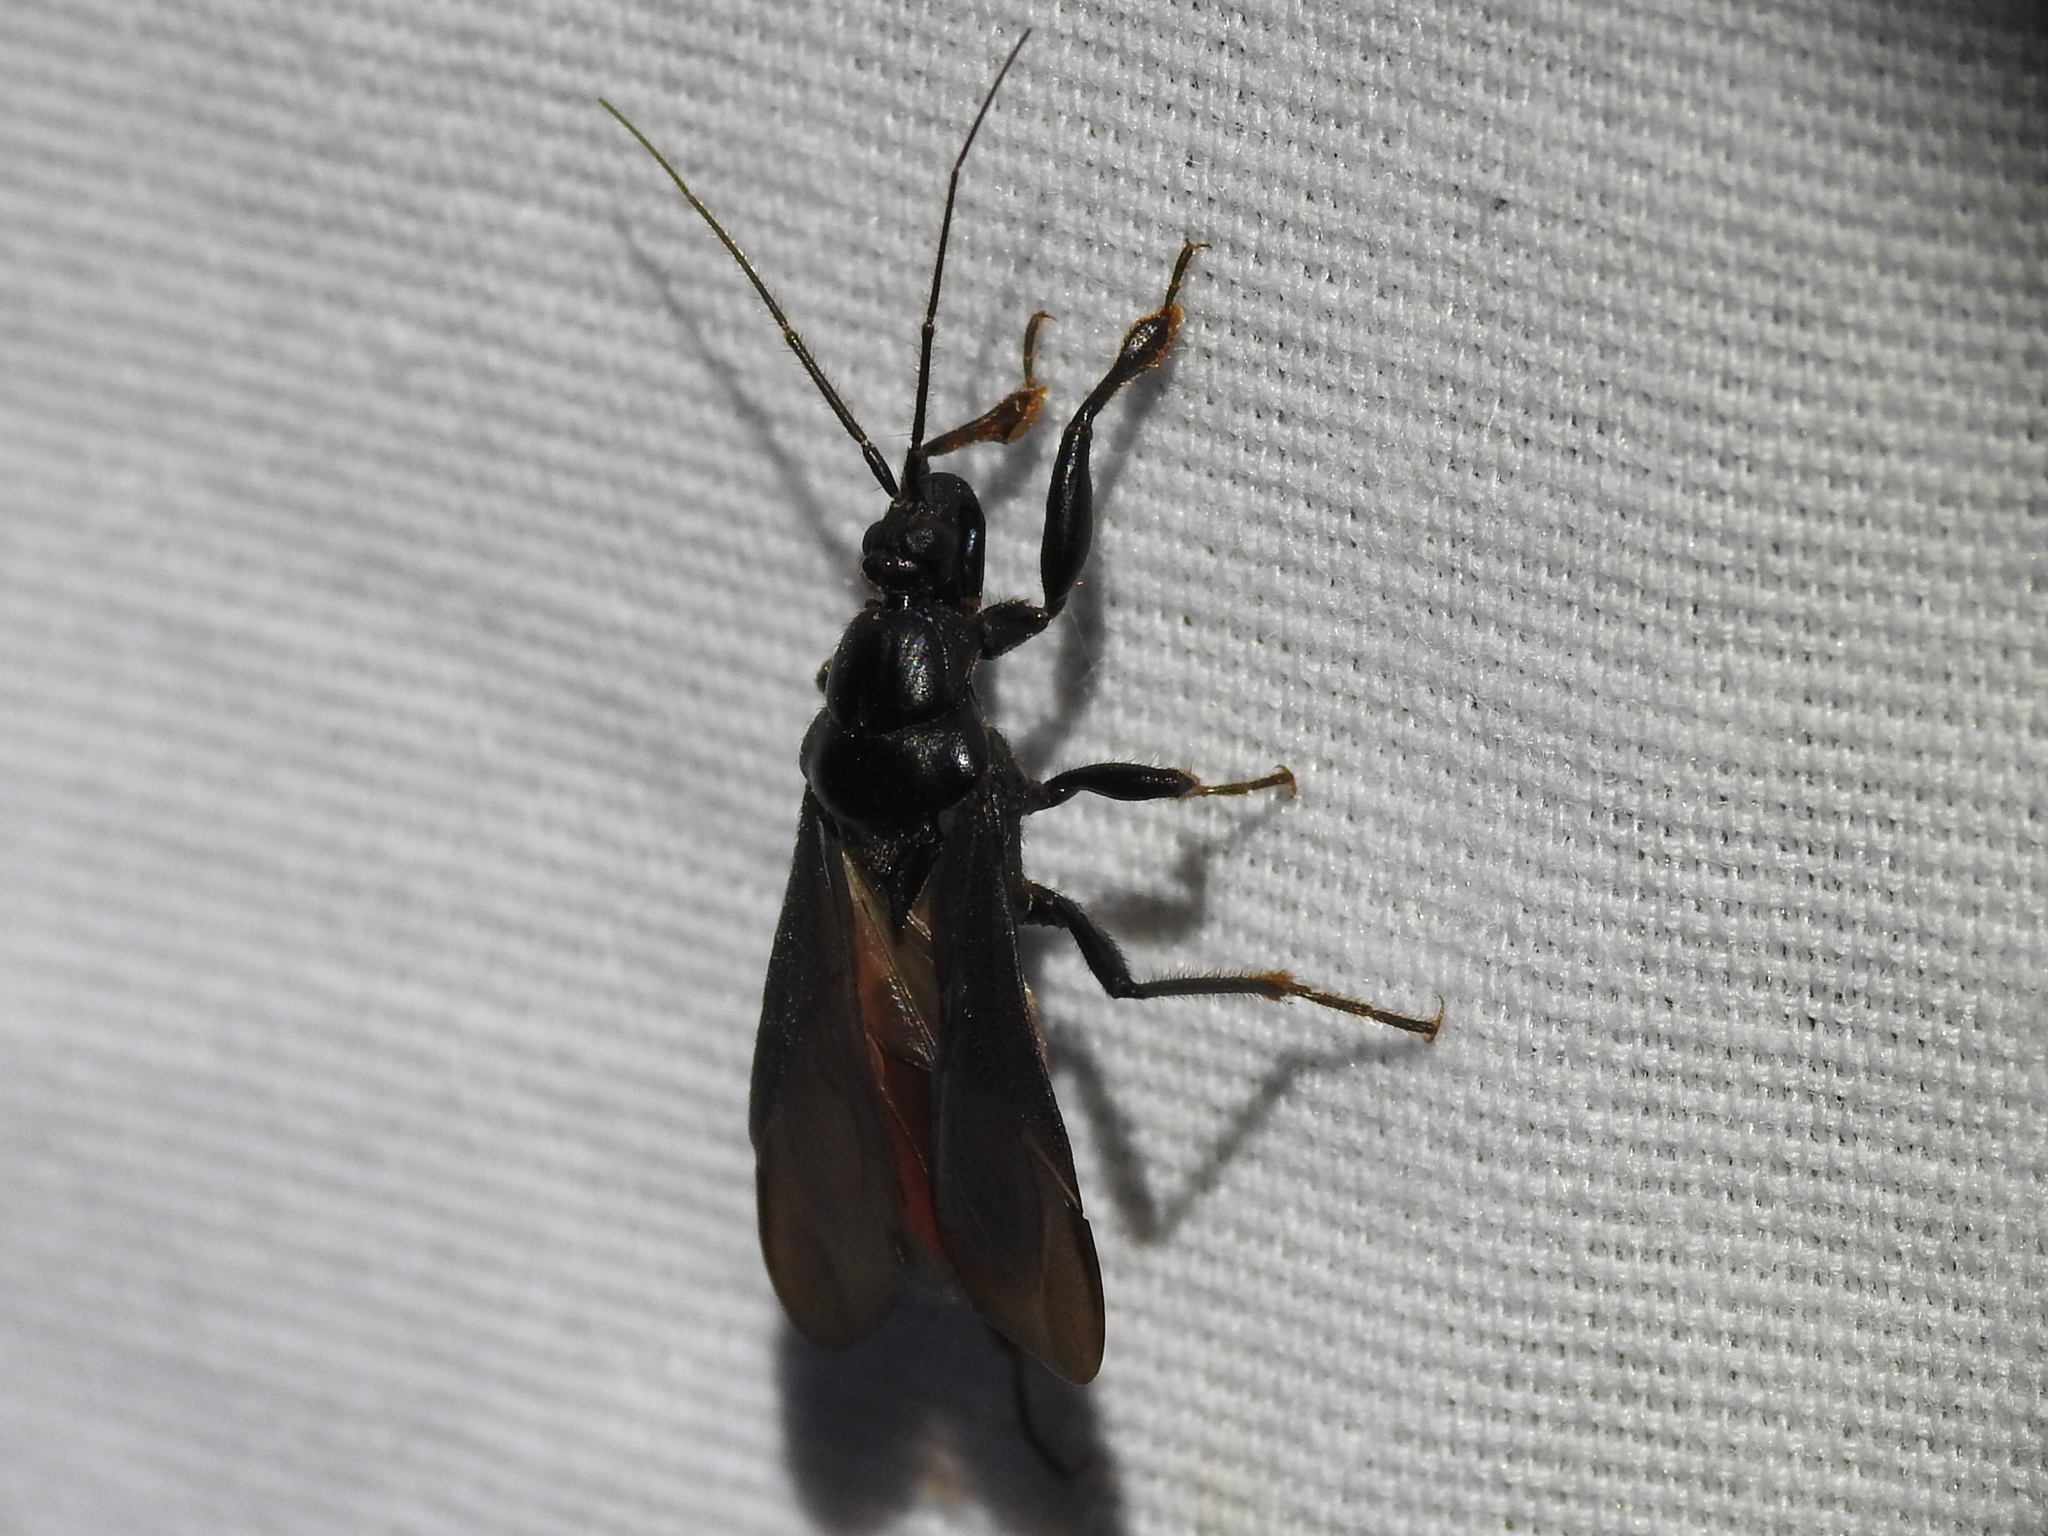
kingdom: Animalia
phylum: Arthropoda
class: Insecta
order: Hemiptera
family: Reduviidae
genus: Melanolestes
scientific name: Melanolestes picipes
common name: Assassin bug
